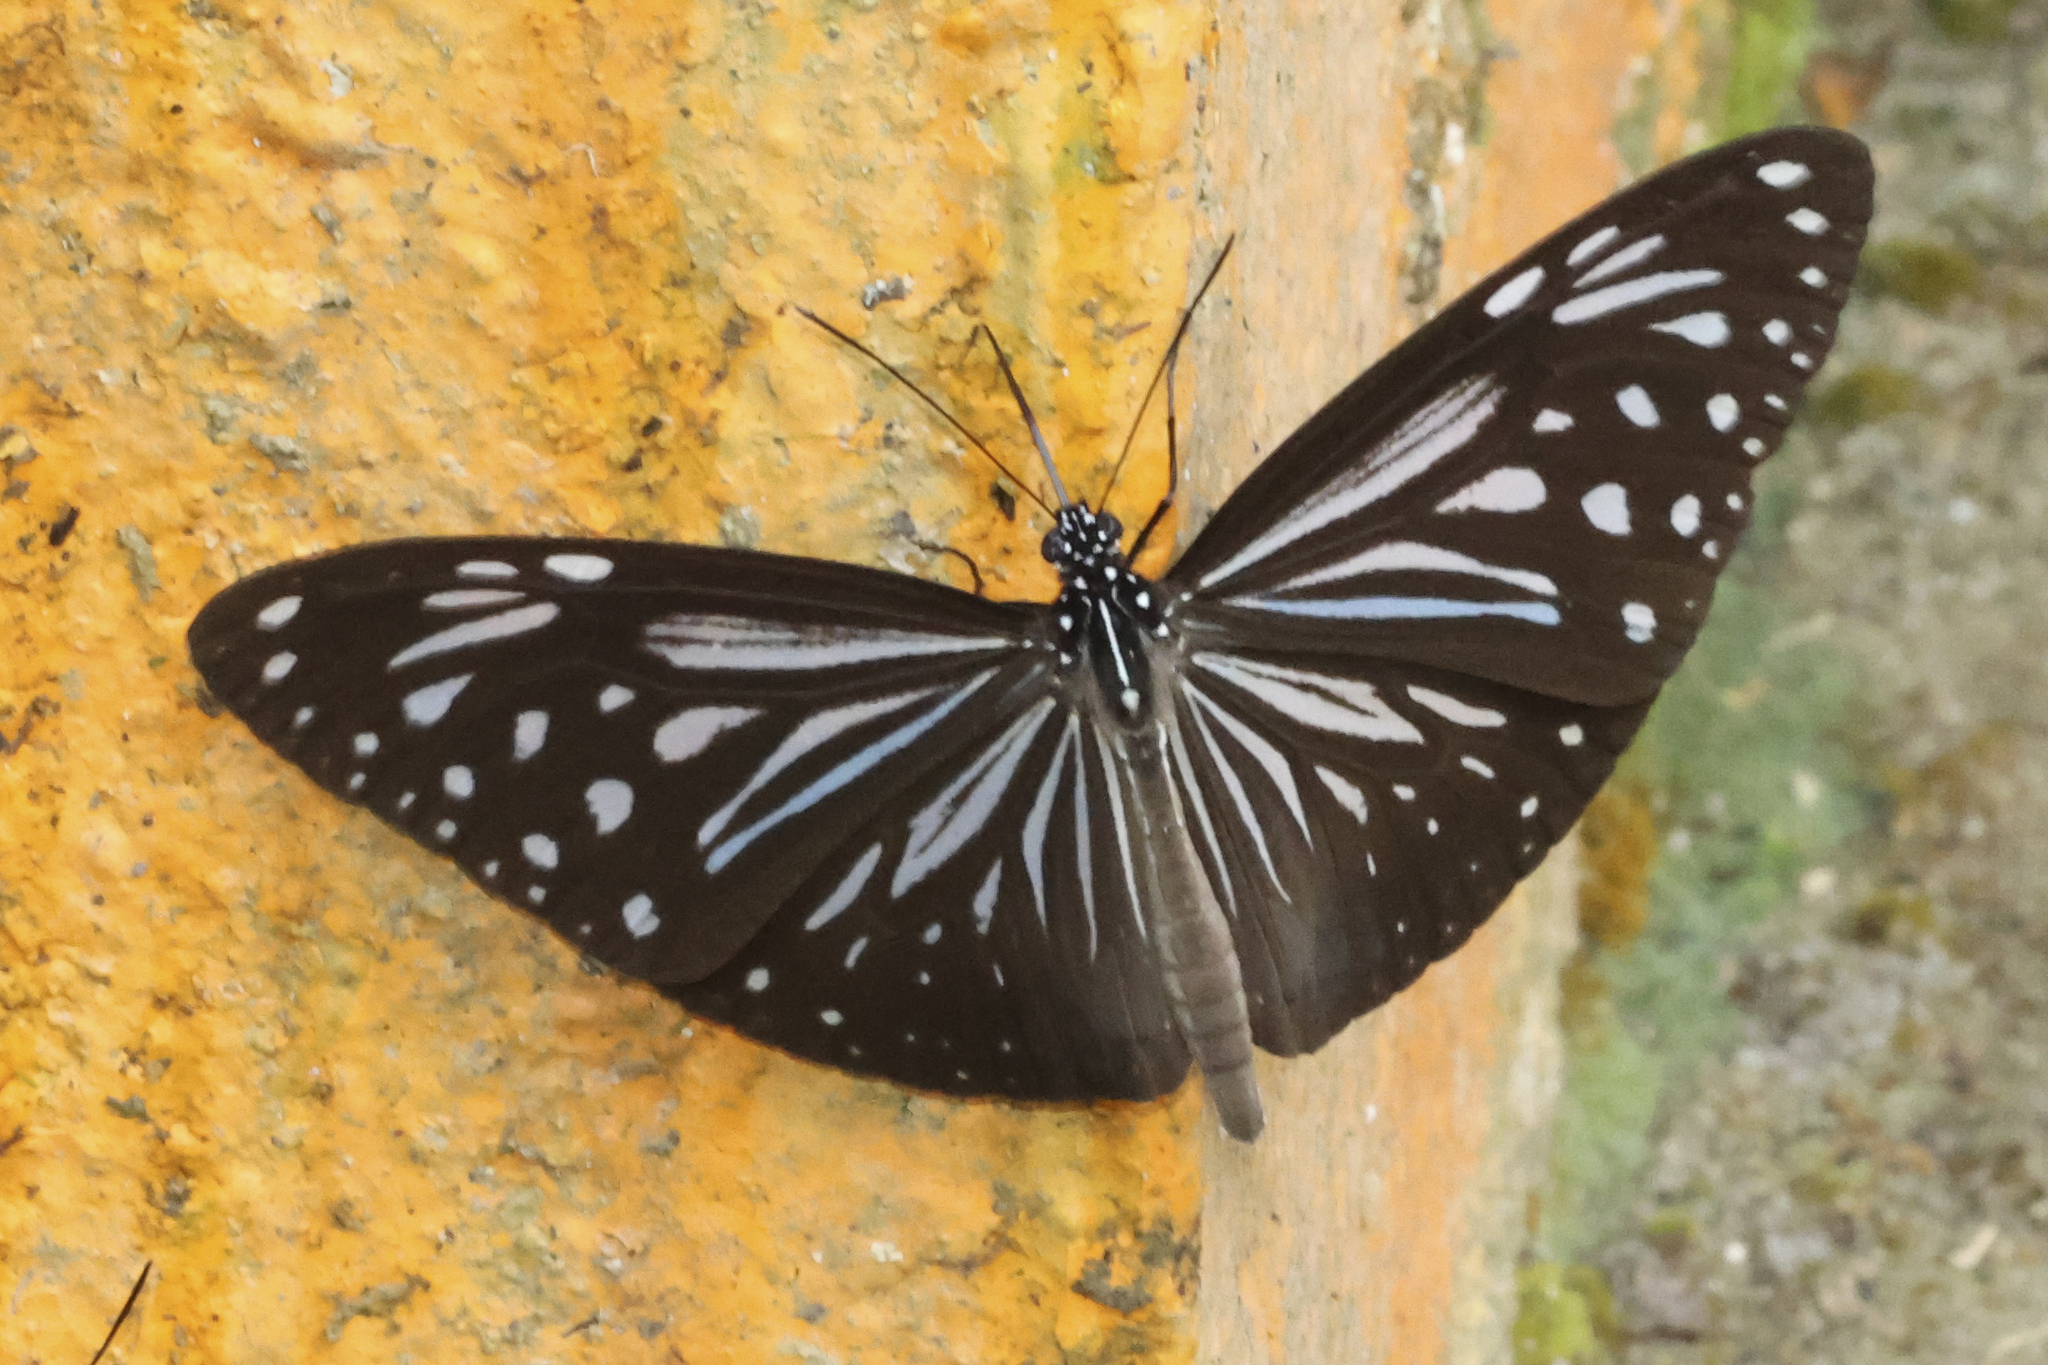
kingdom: Animalia
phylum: Arthropoda
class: Insecta
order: Lepidoptera
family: Nymphalidae
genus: Parantica
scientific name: Parantica luzonensis
